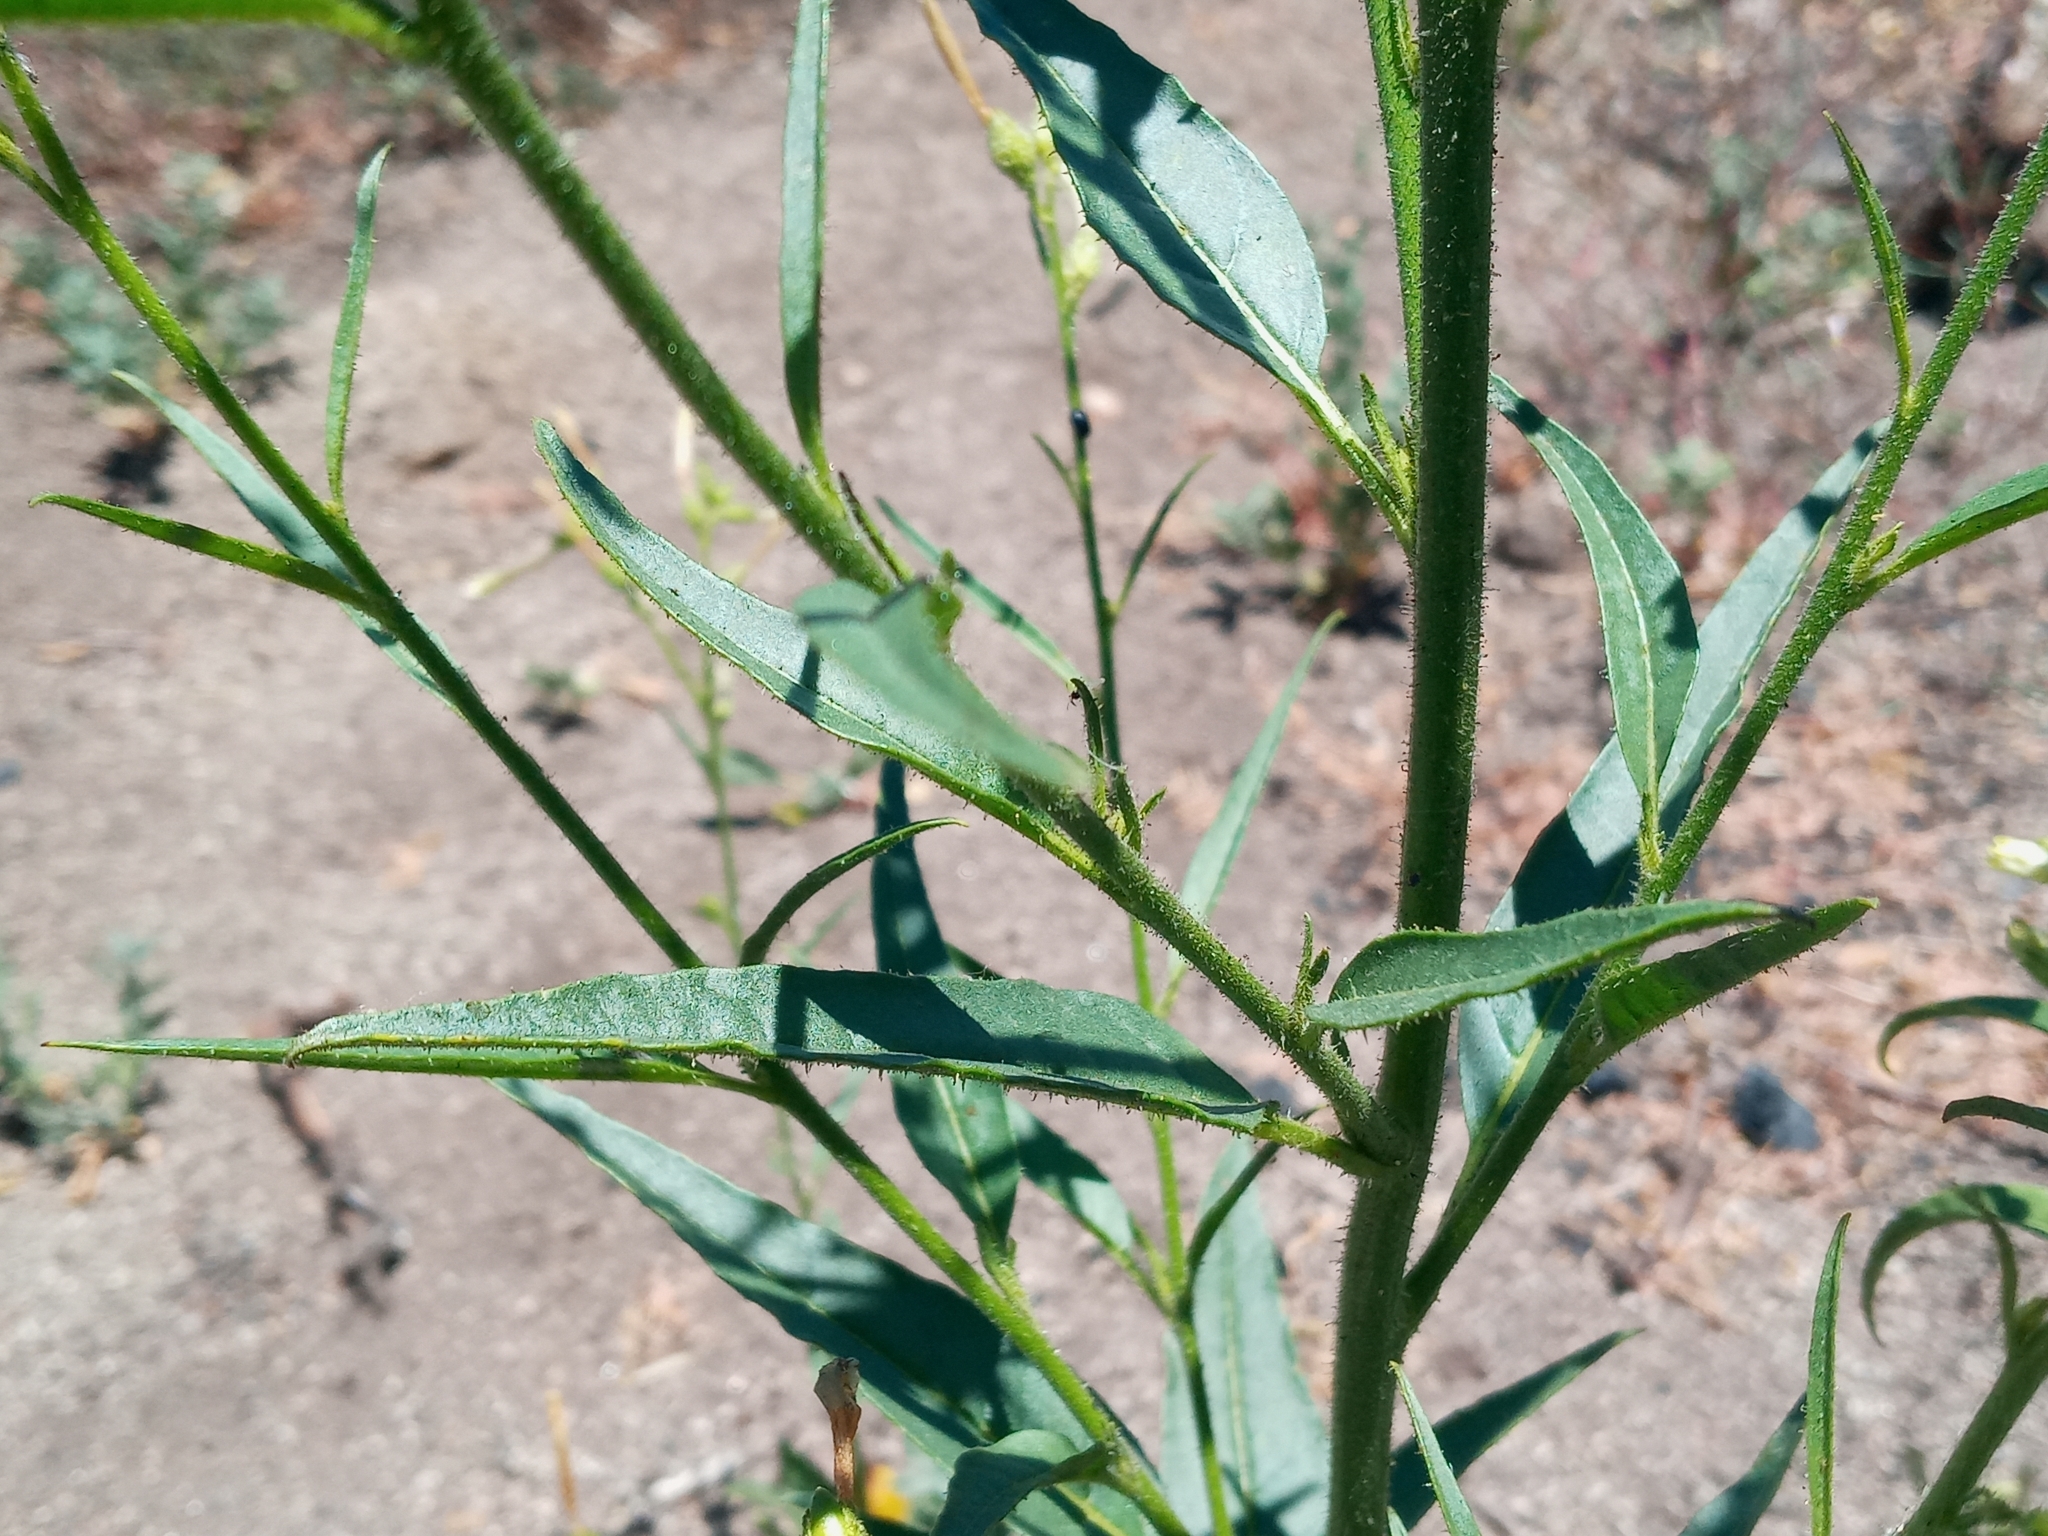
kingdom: Plantae
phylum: Tracheophyta
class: Magnoliopsida
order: Solanales
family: Solanaceae
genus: Nicotiana
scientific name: Nicotiana attenuata
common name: Coyote tobacco
